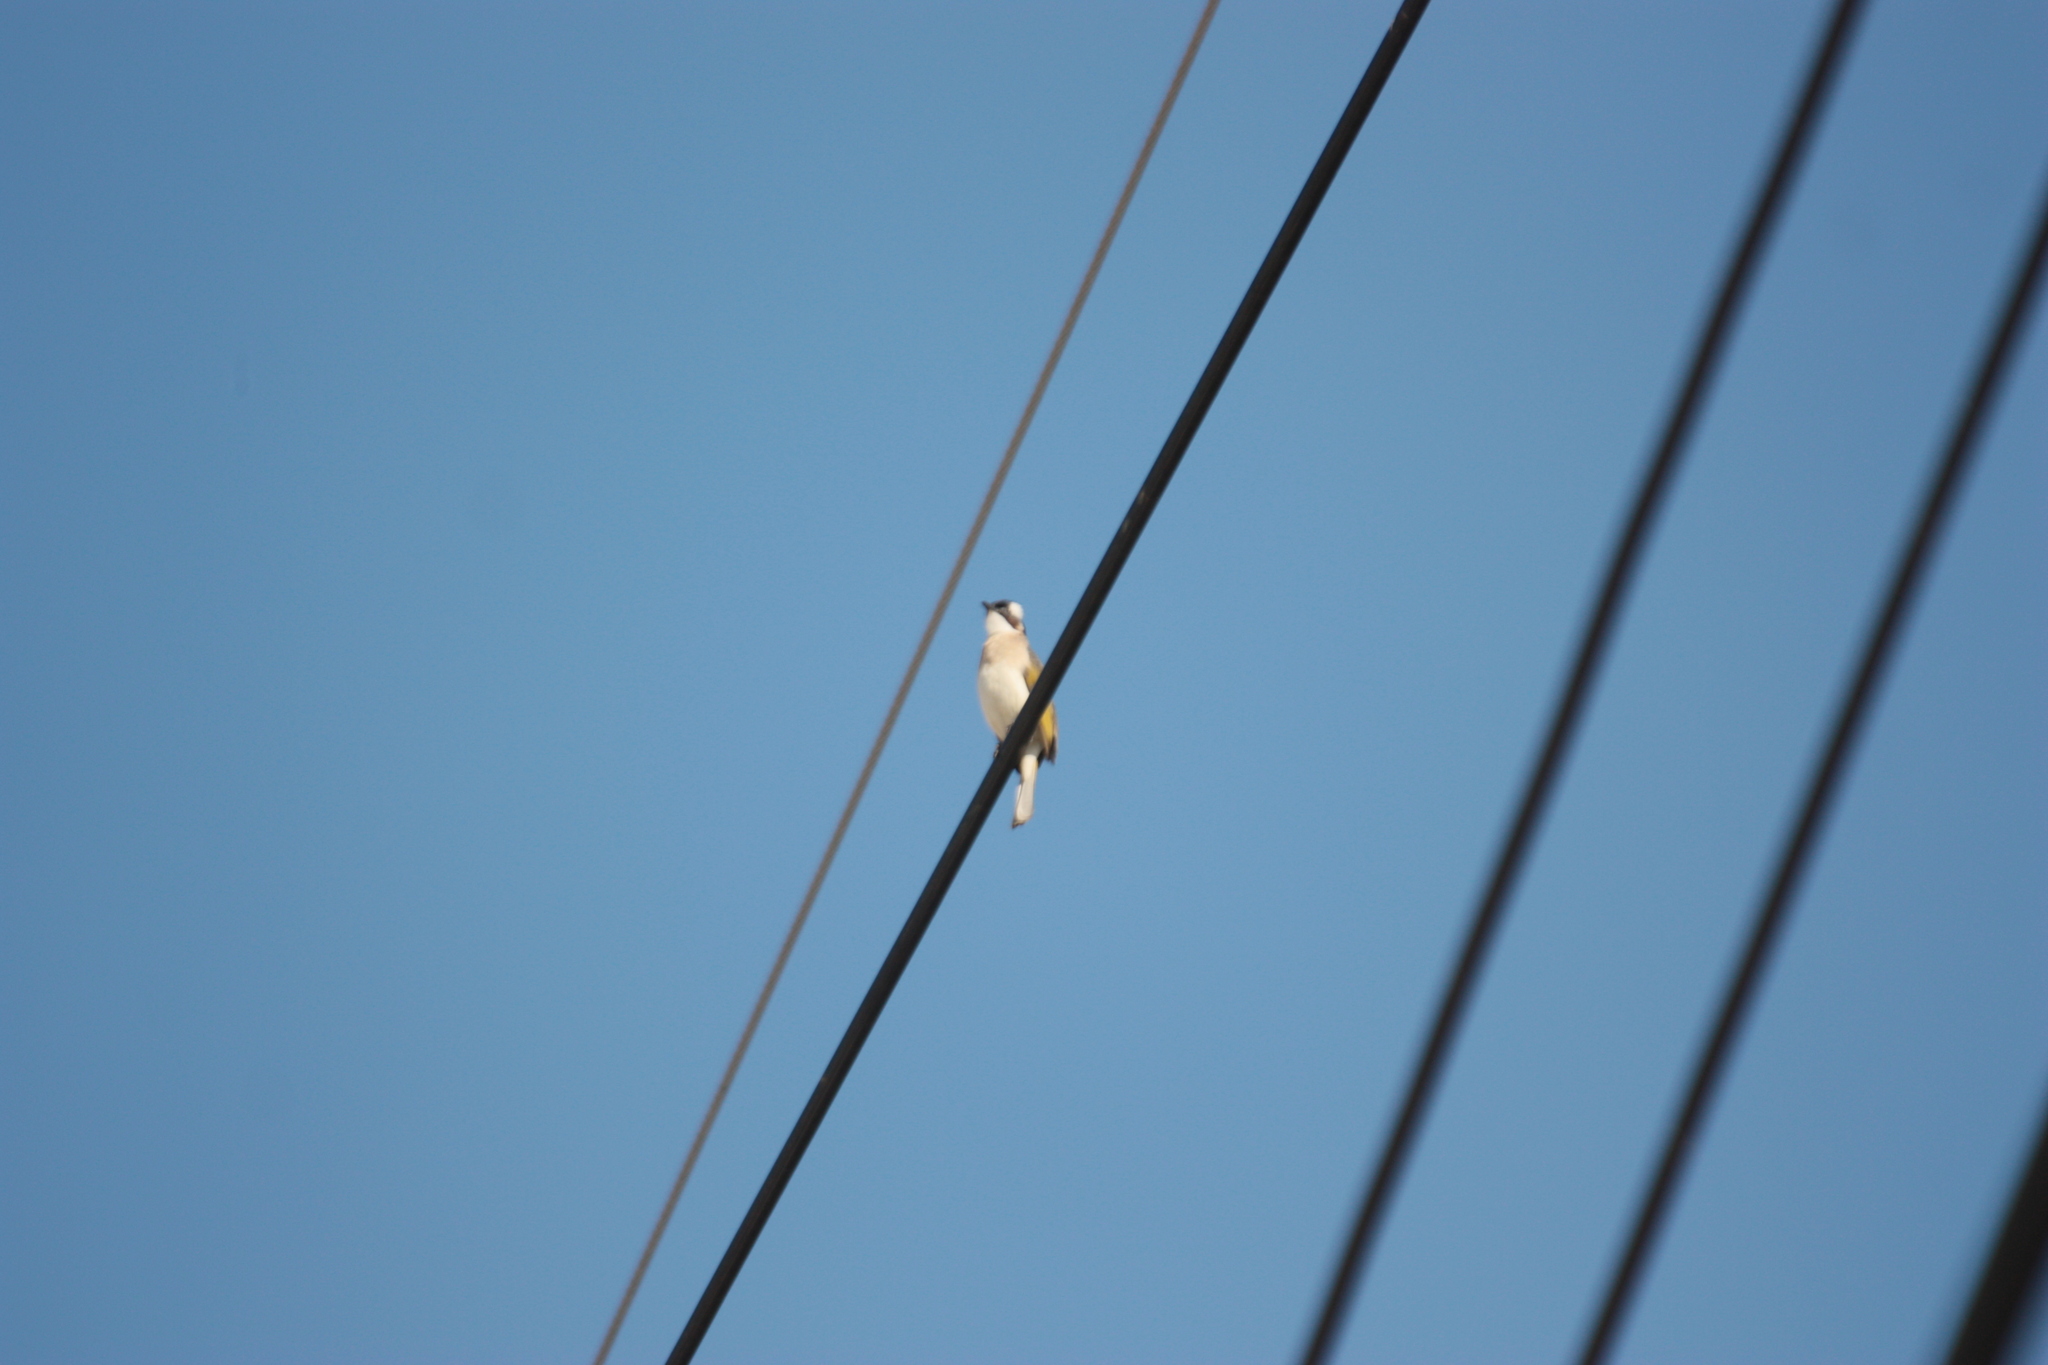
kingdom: Animalia
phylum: Chordata
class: Aves
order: Passeriformes
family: Pycnonotidae
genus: Pycnonotus
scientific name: Pycnonotus sinensis
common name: Light-vented bulbul
